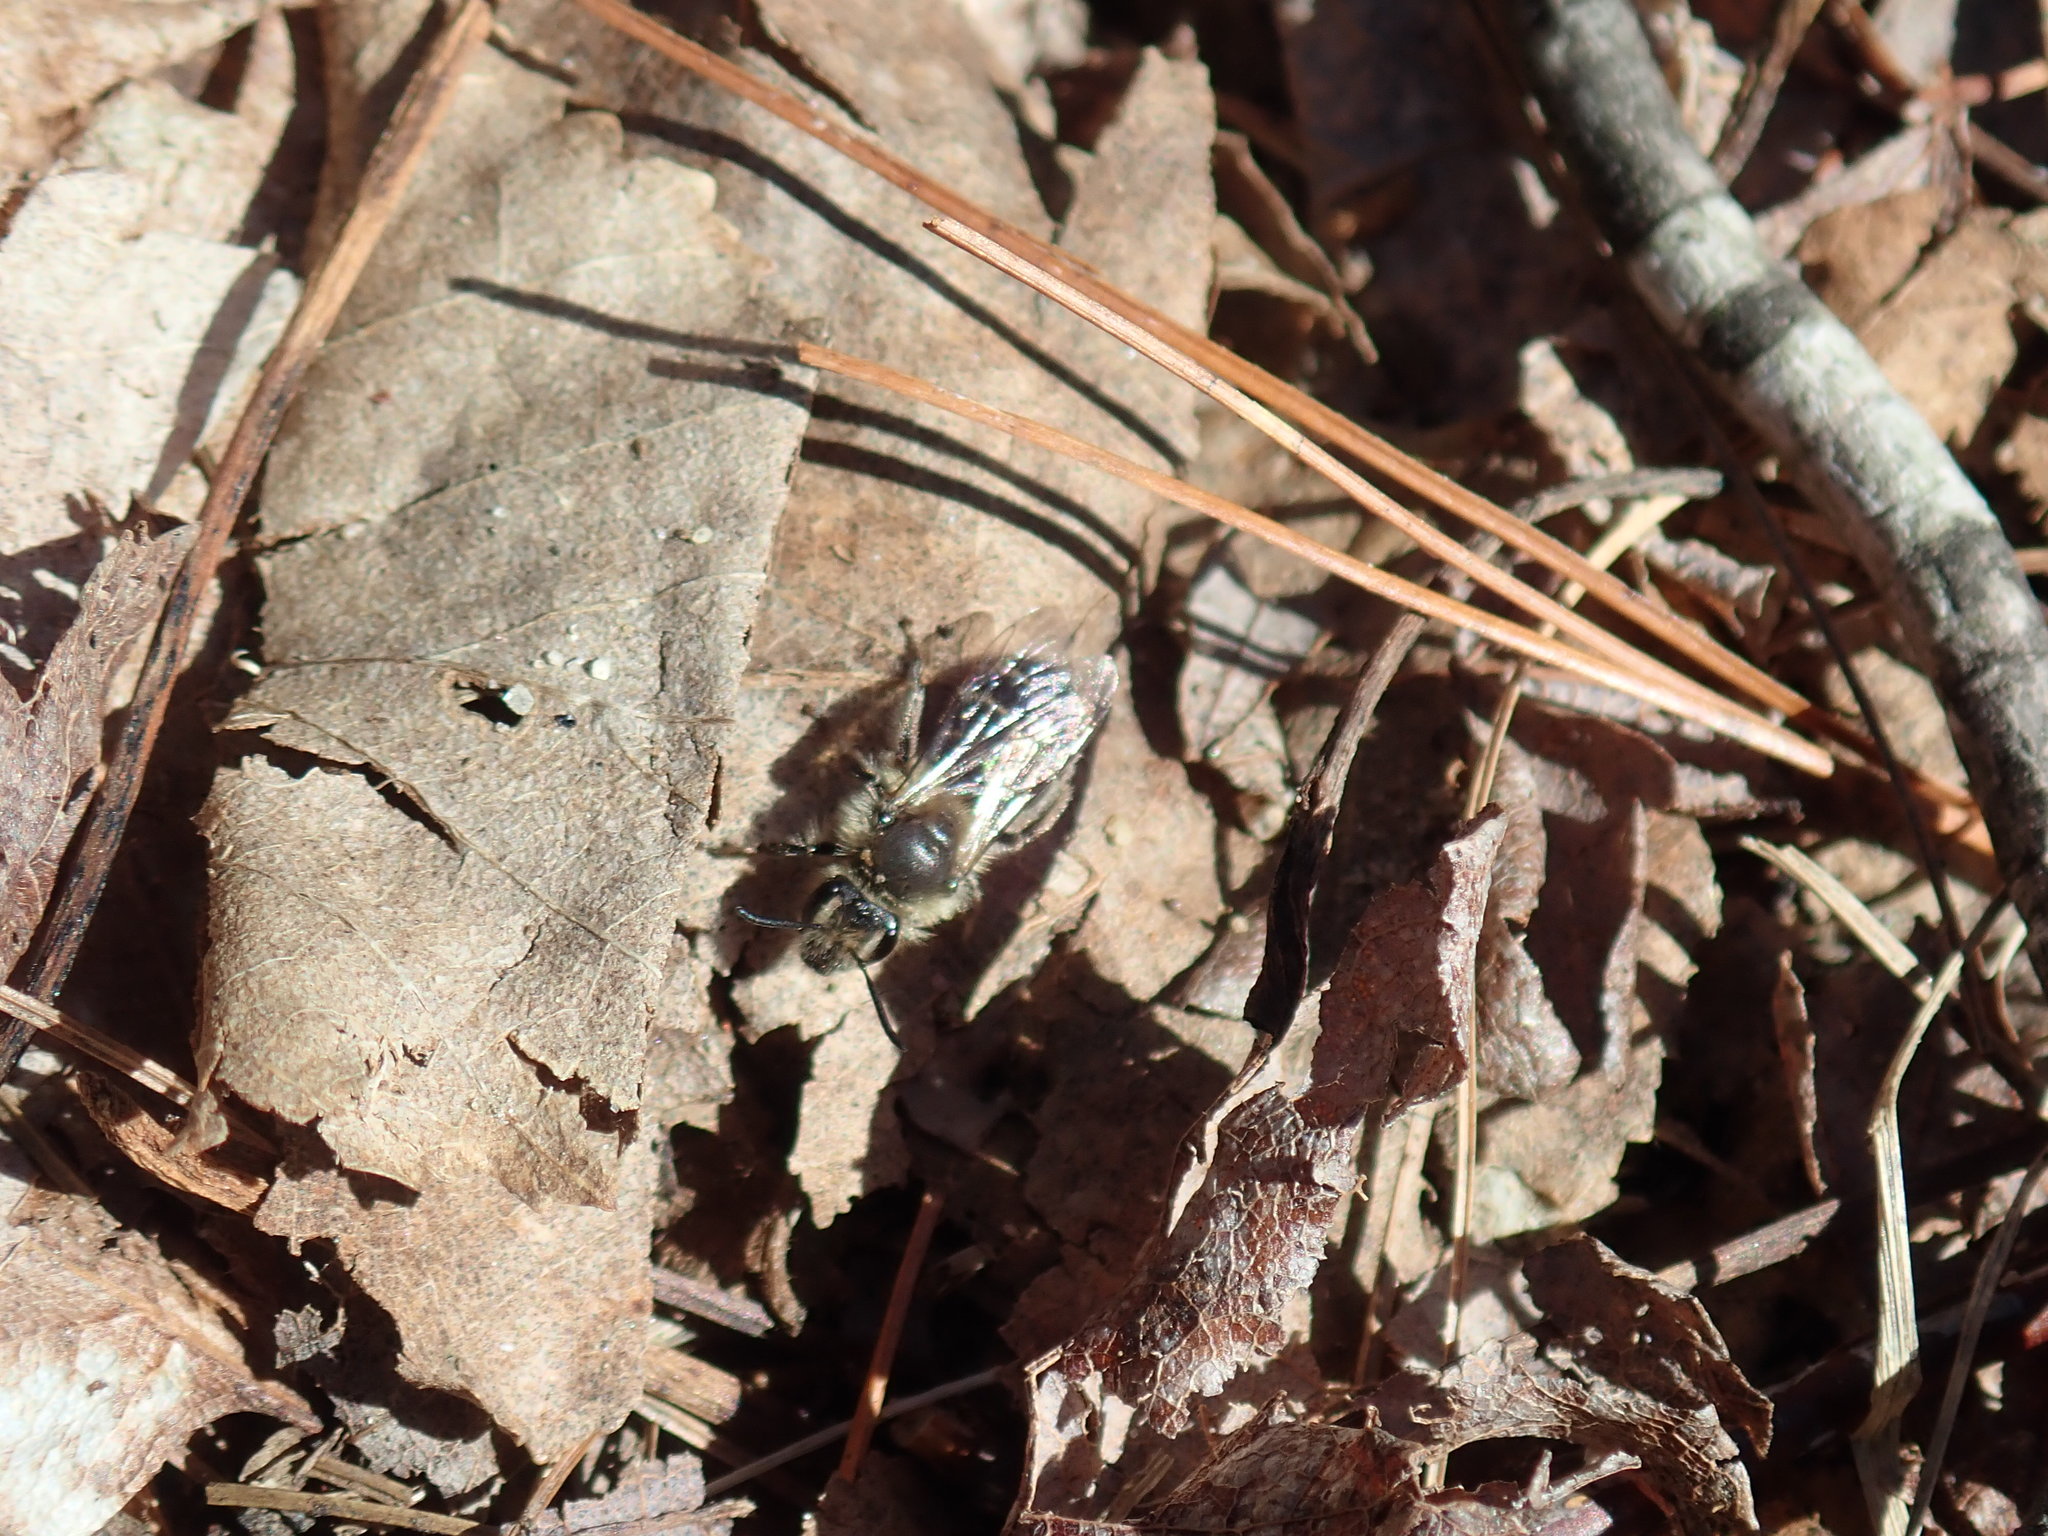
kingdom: Animalia
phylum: Arthropoda
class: Insecta
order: Hymenoptera
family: Andrenidae
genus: Andrena
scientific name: Andrena bradleyi
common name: Bradley's mining bee
